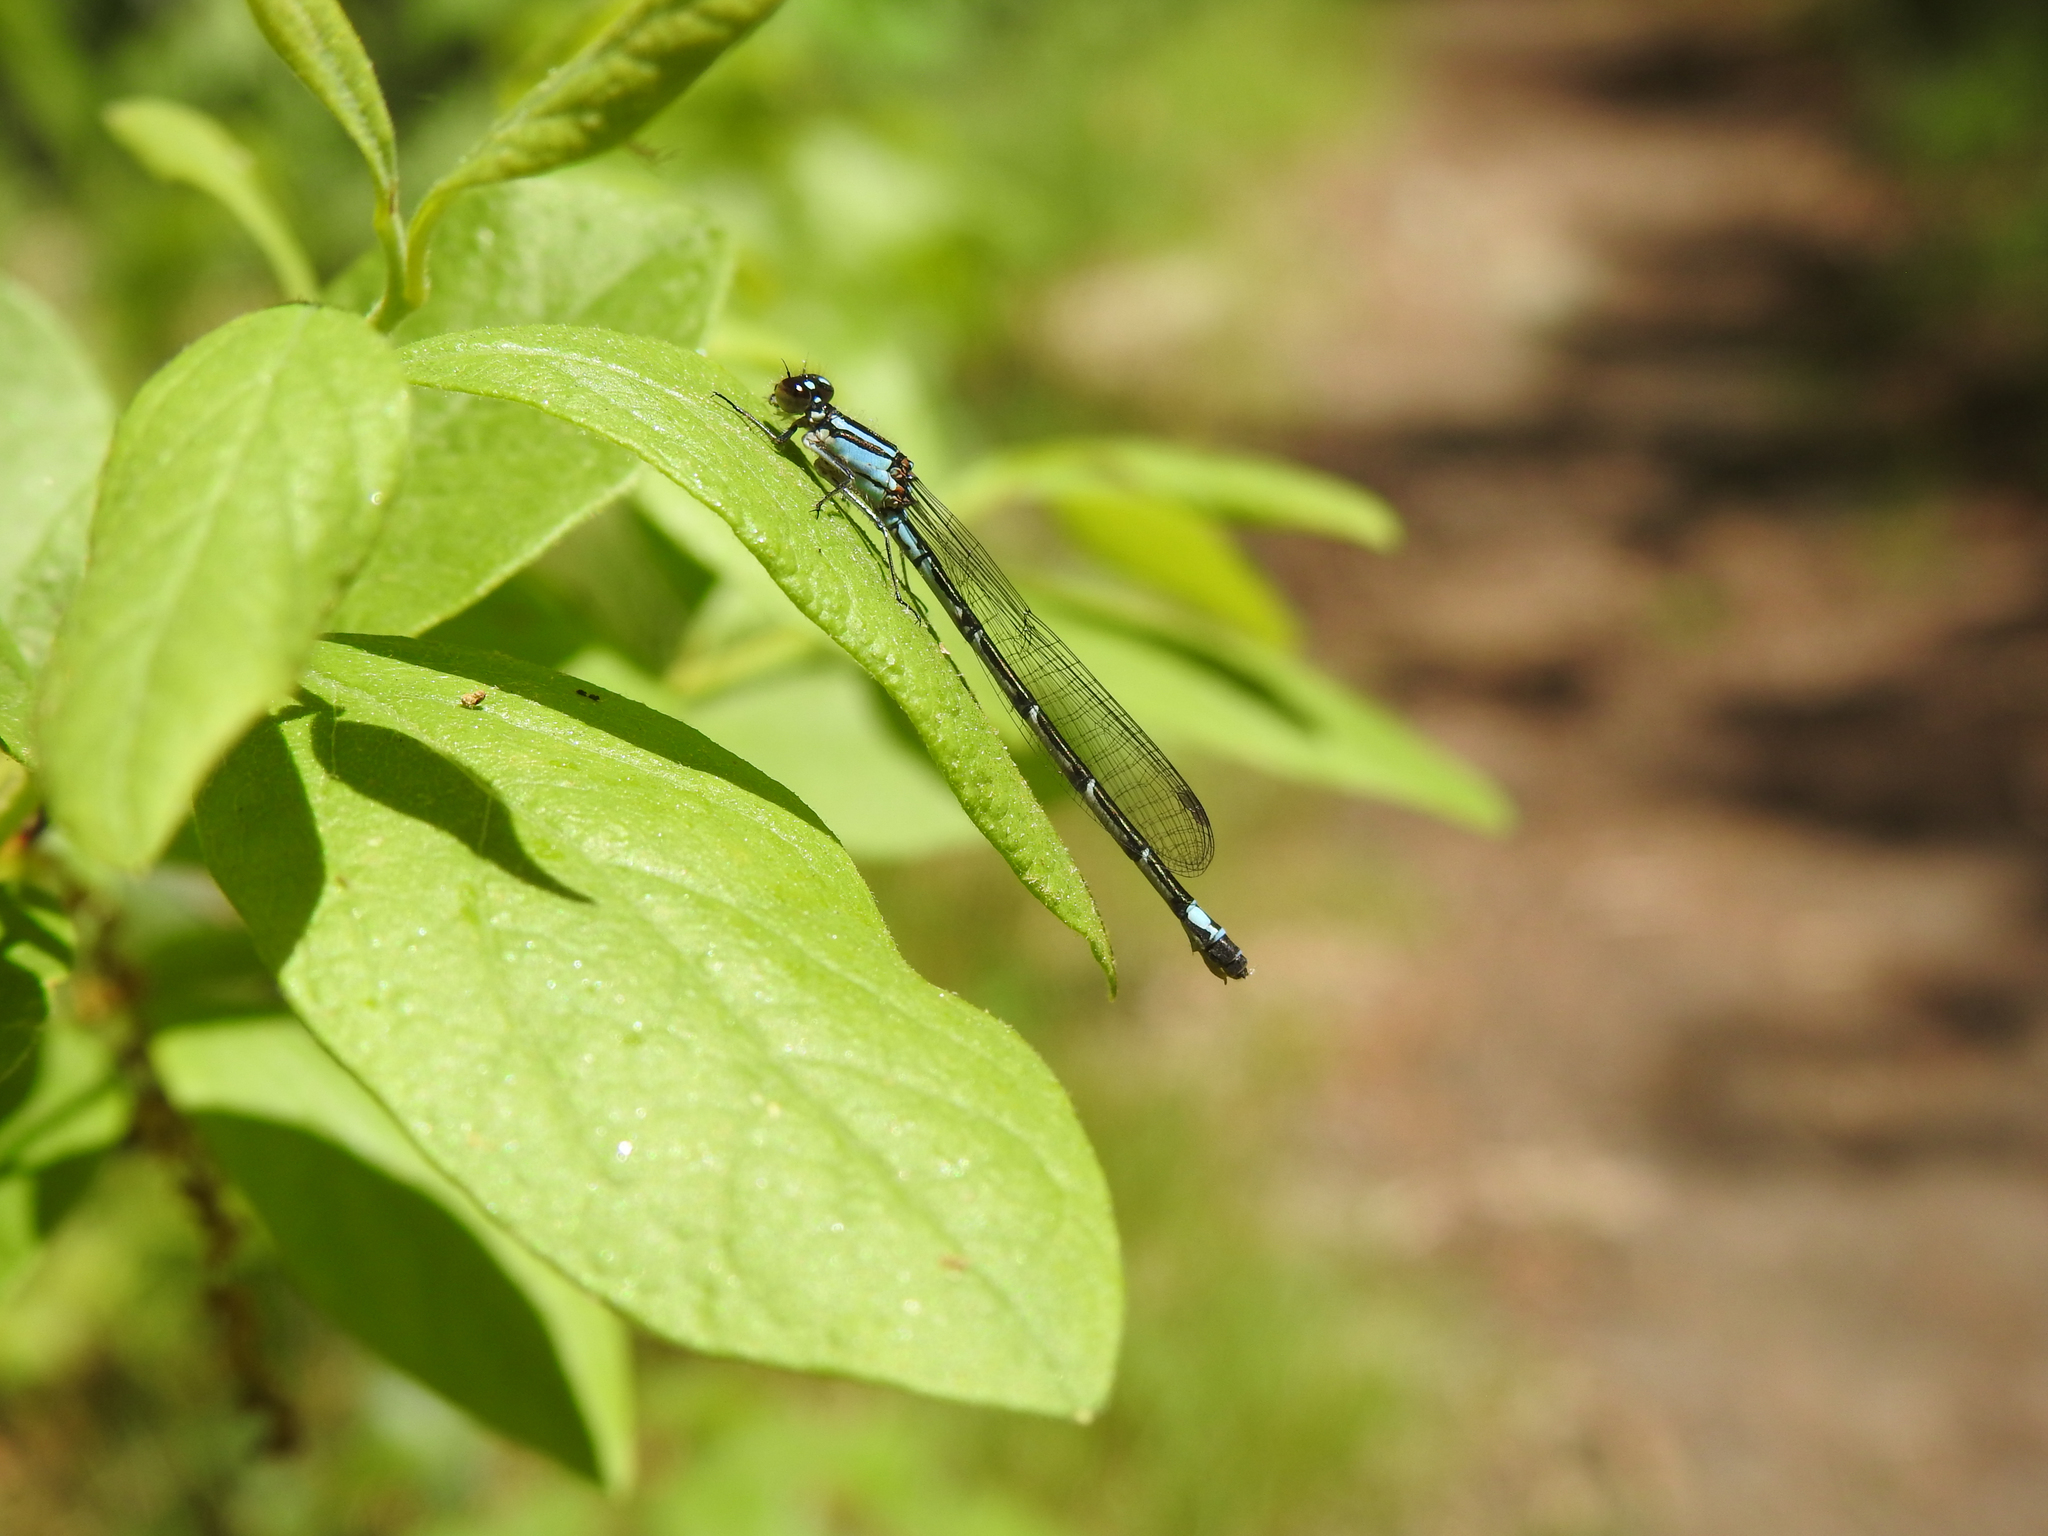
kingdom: Animalia
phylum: Arthropoda
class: Insecta
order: Odonata
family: Coenagrionidae
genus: Enallagma
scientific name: Enallagma geminatum
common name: Skimming bluet
